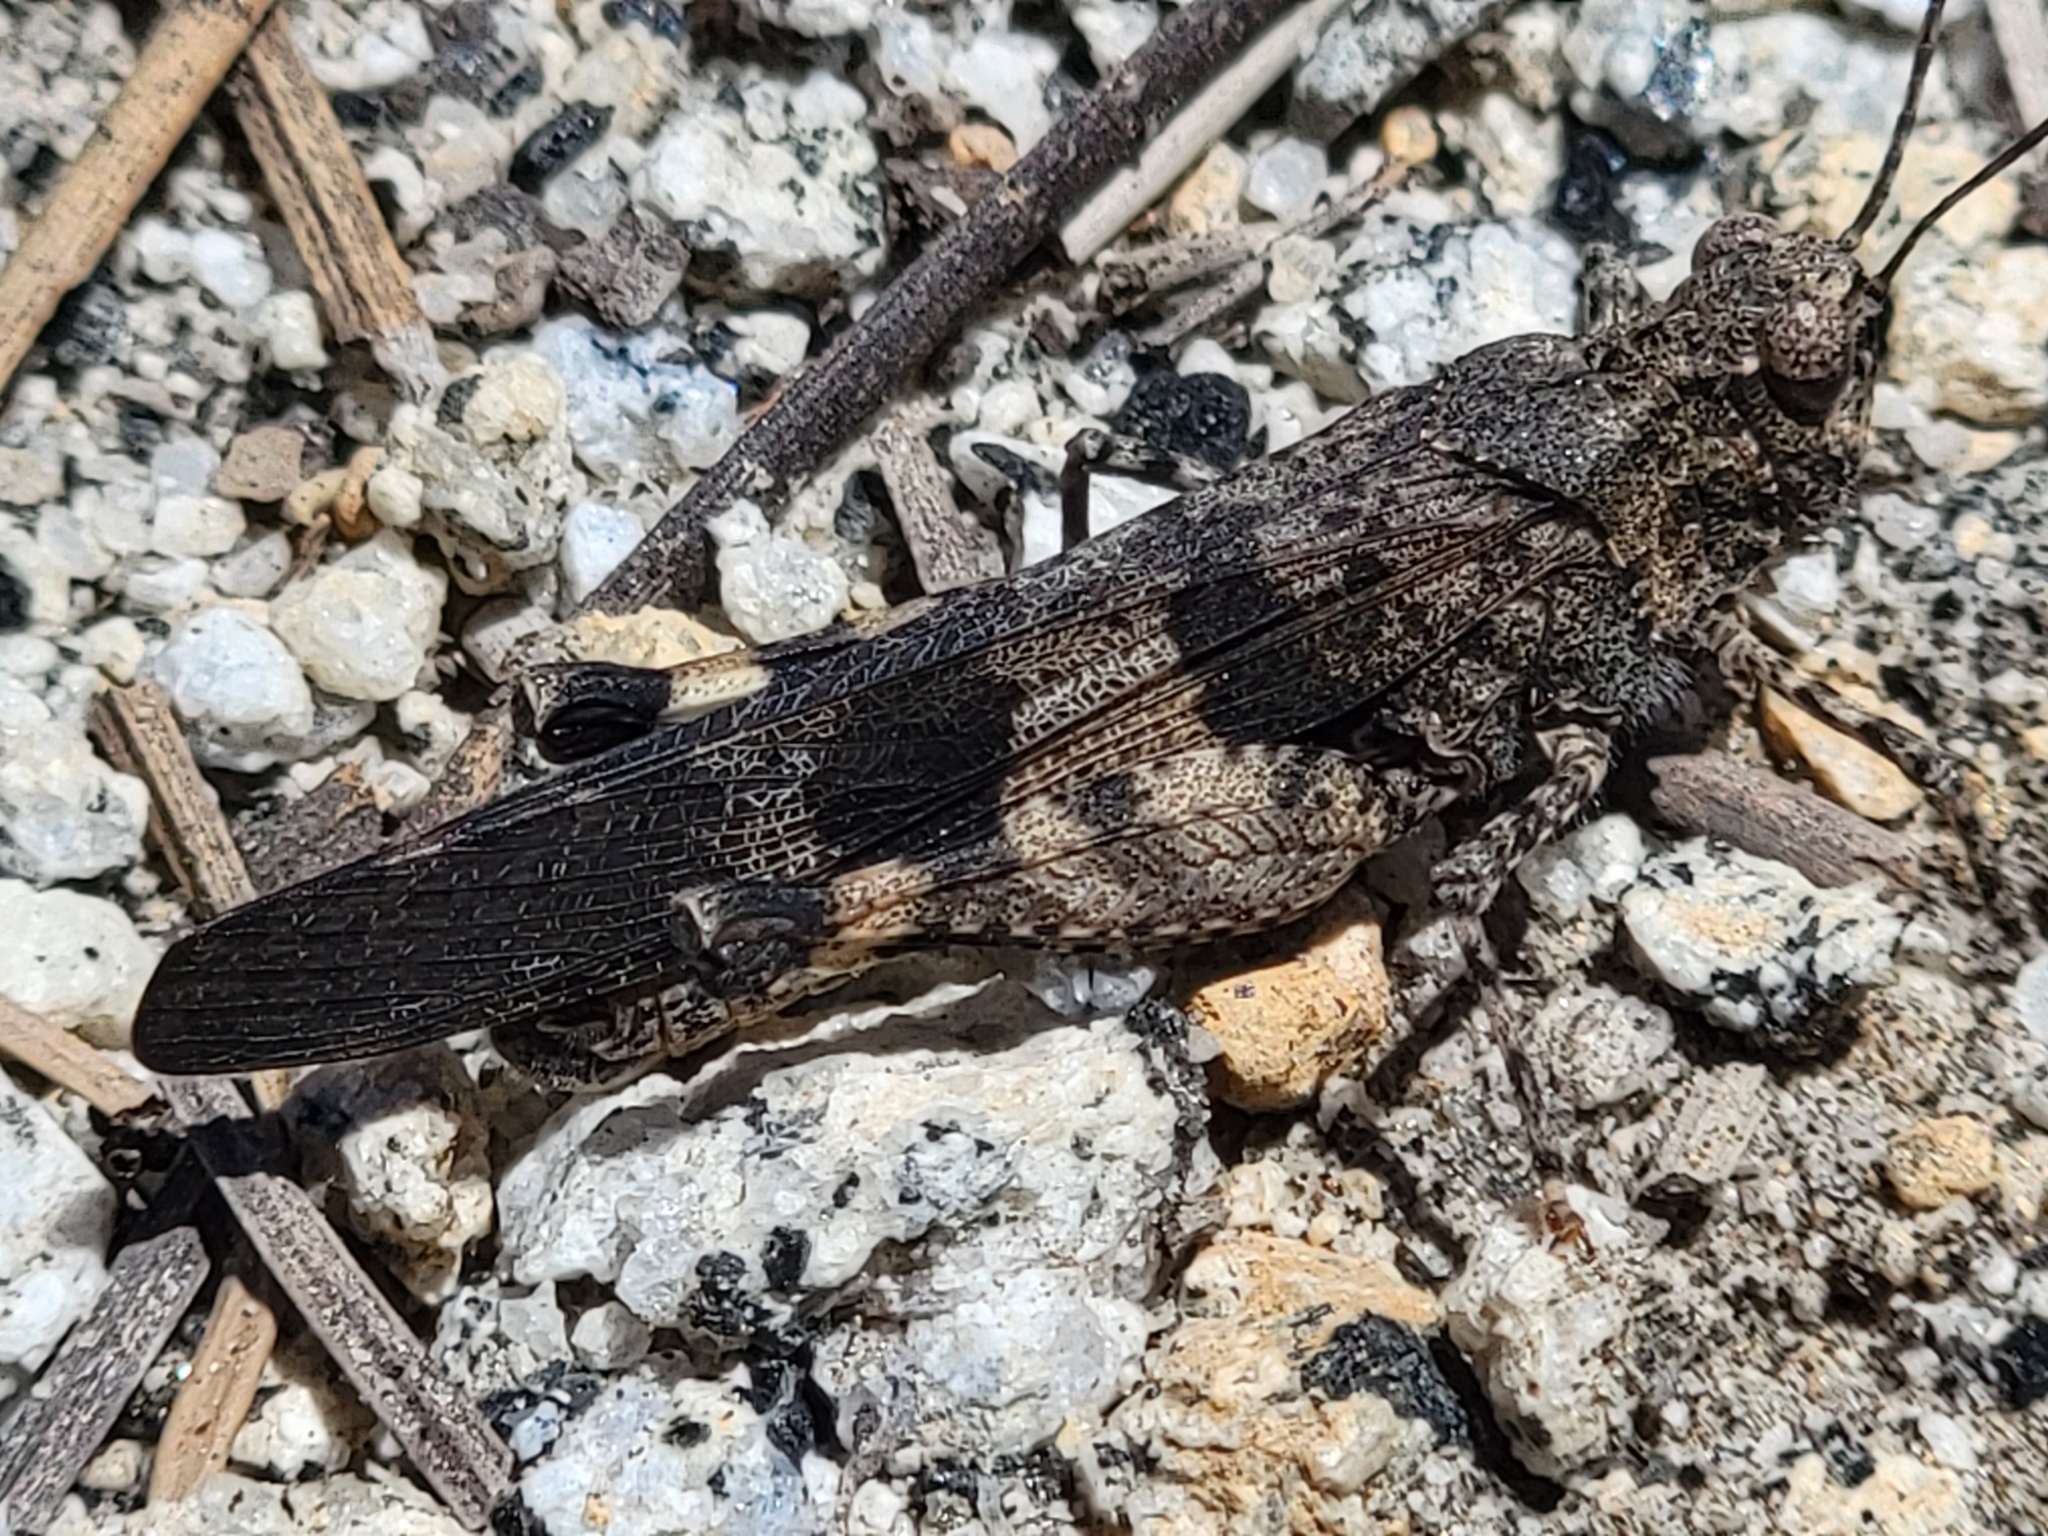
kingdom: Animalia
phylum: Arthropoda
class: Insecta
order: Orthoptera
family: Acrididae
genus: Trimerotropis
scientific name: Trimerotropis fontana
